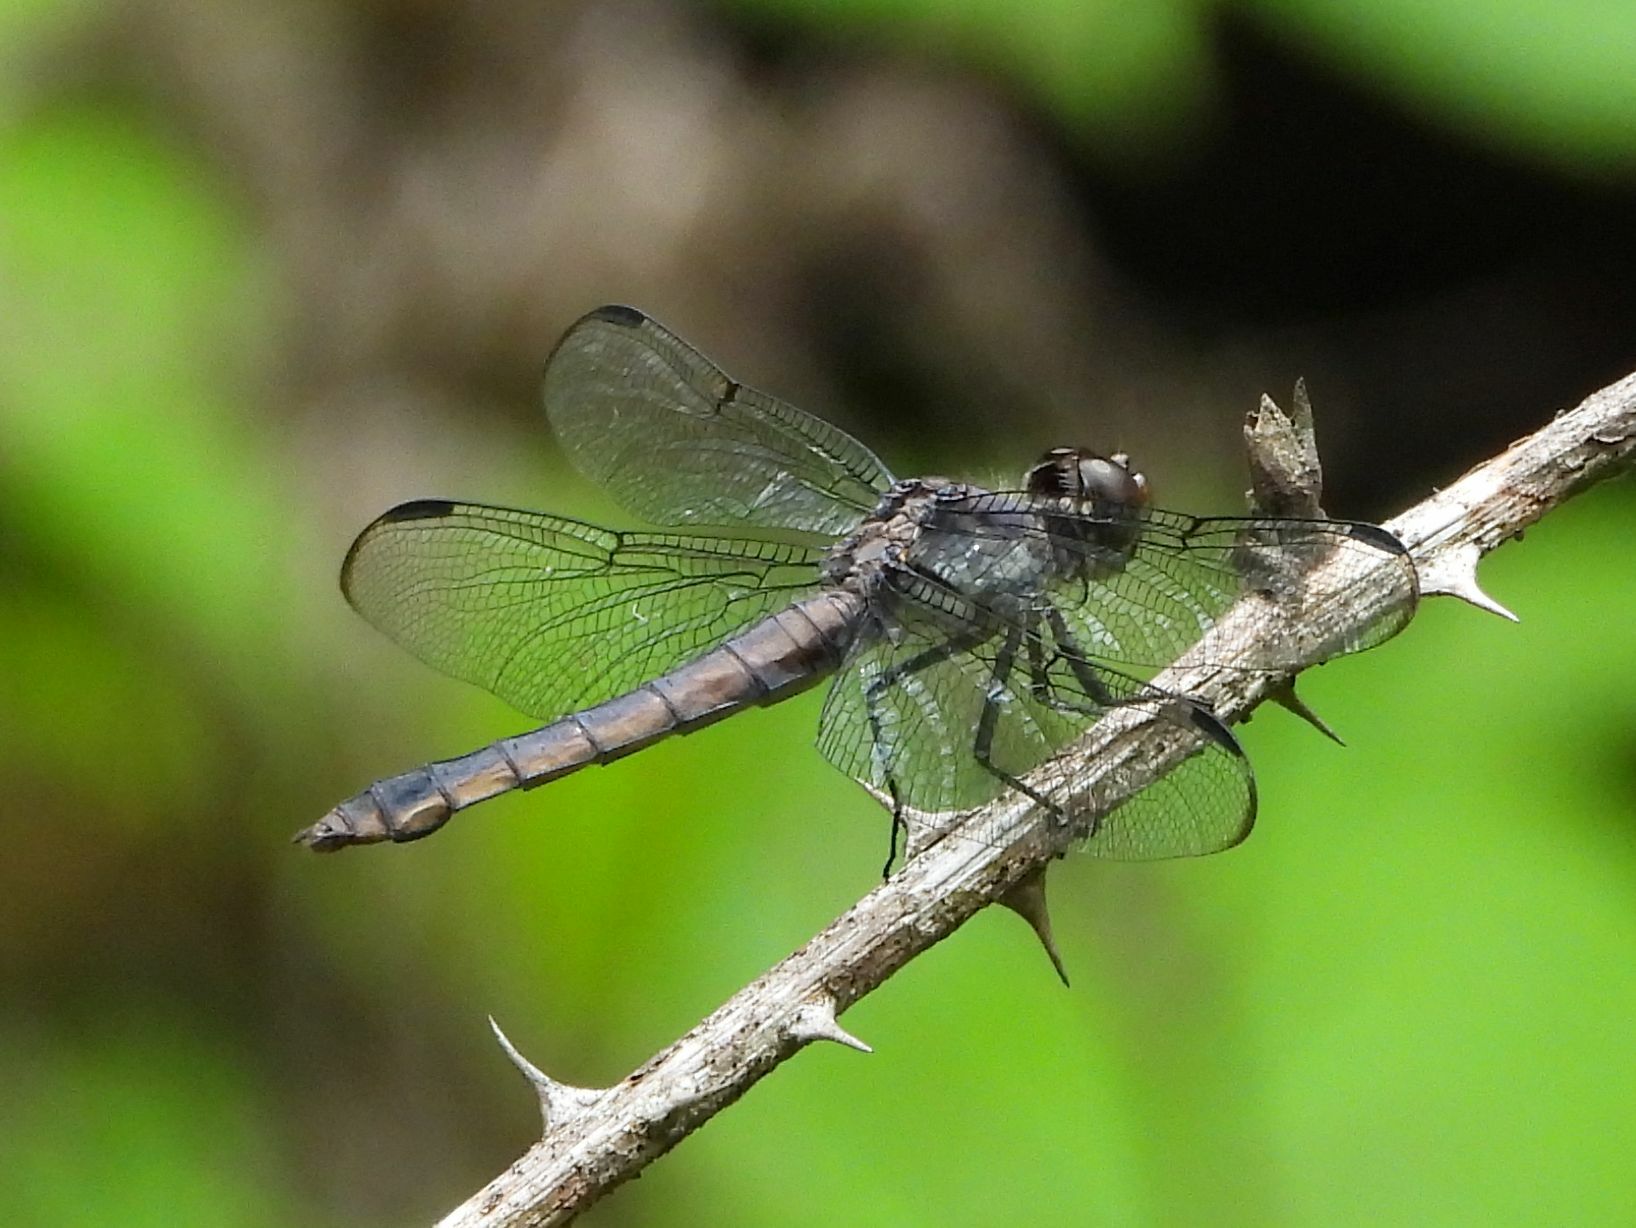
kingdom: Animalia
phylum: Arthropoda
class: Insecta
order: Odonata
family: Libellulidae
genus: Libellula
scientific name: Libellula incesta
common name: Slaty skimmer
